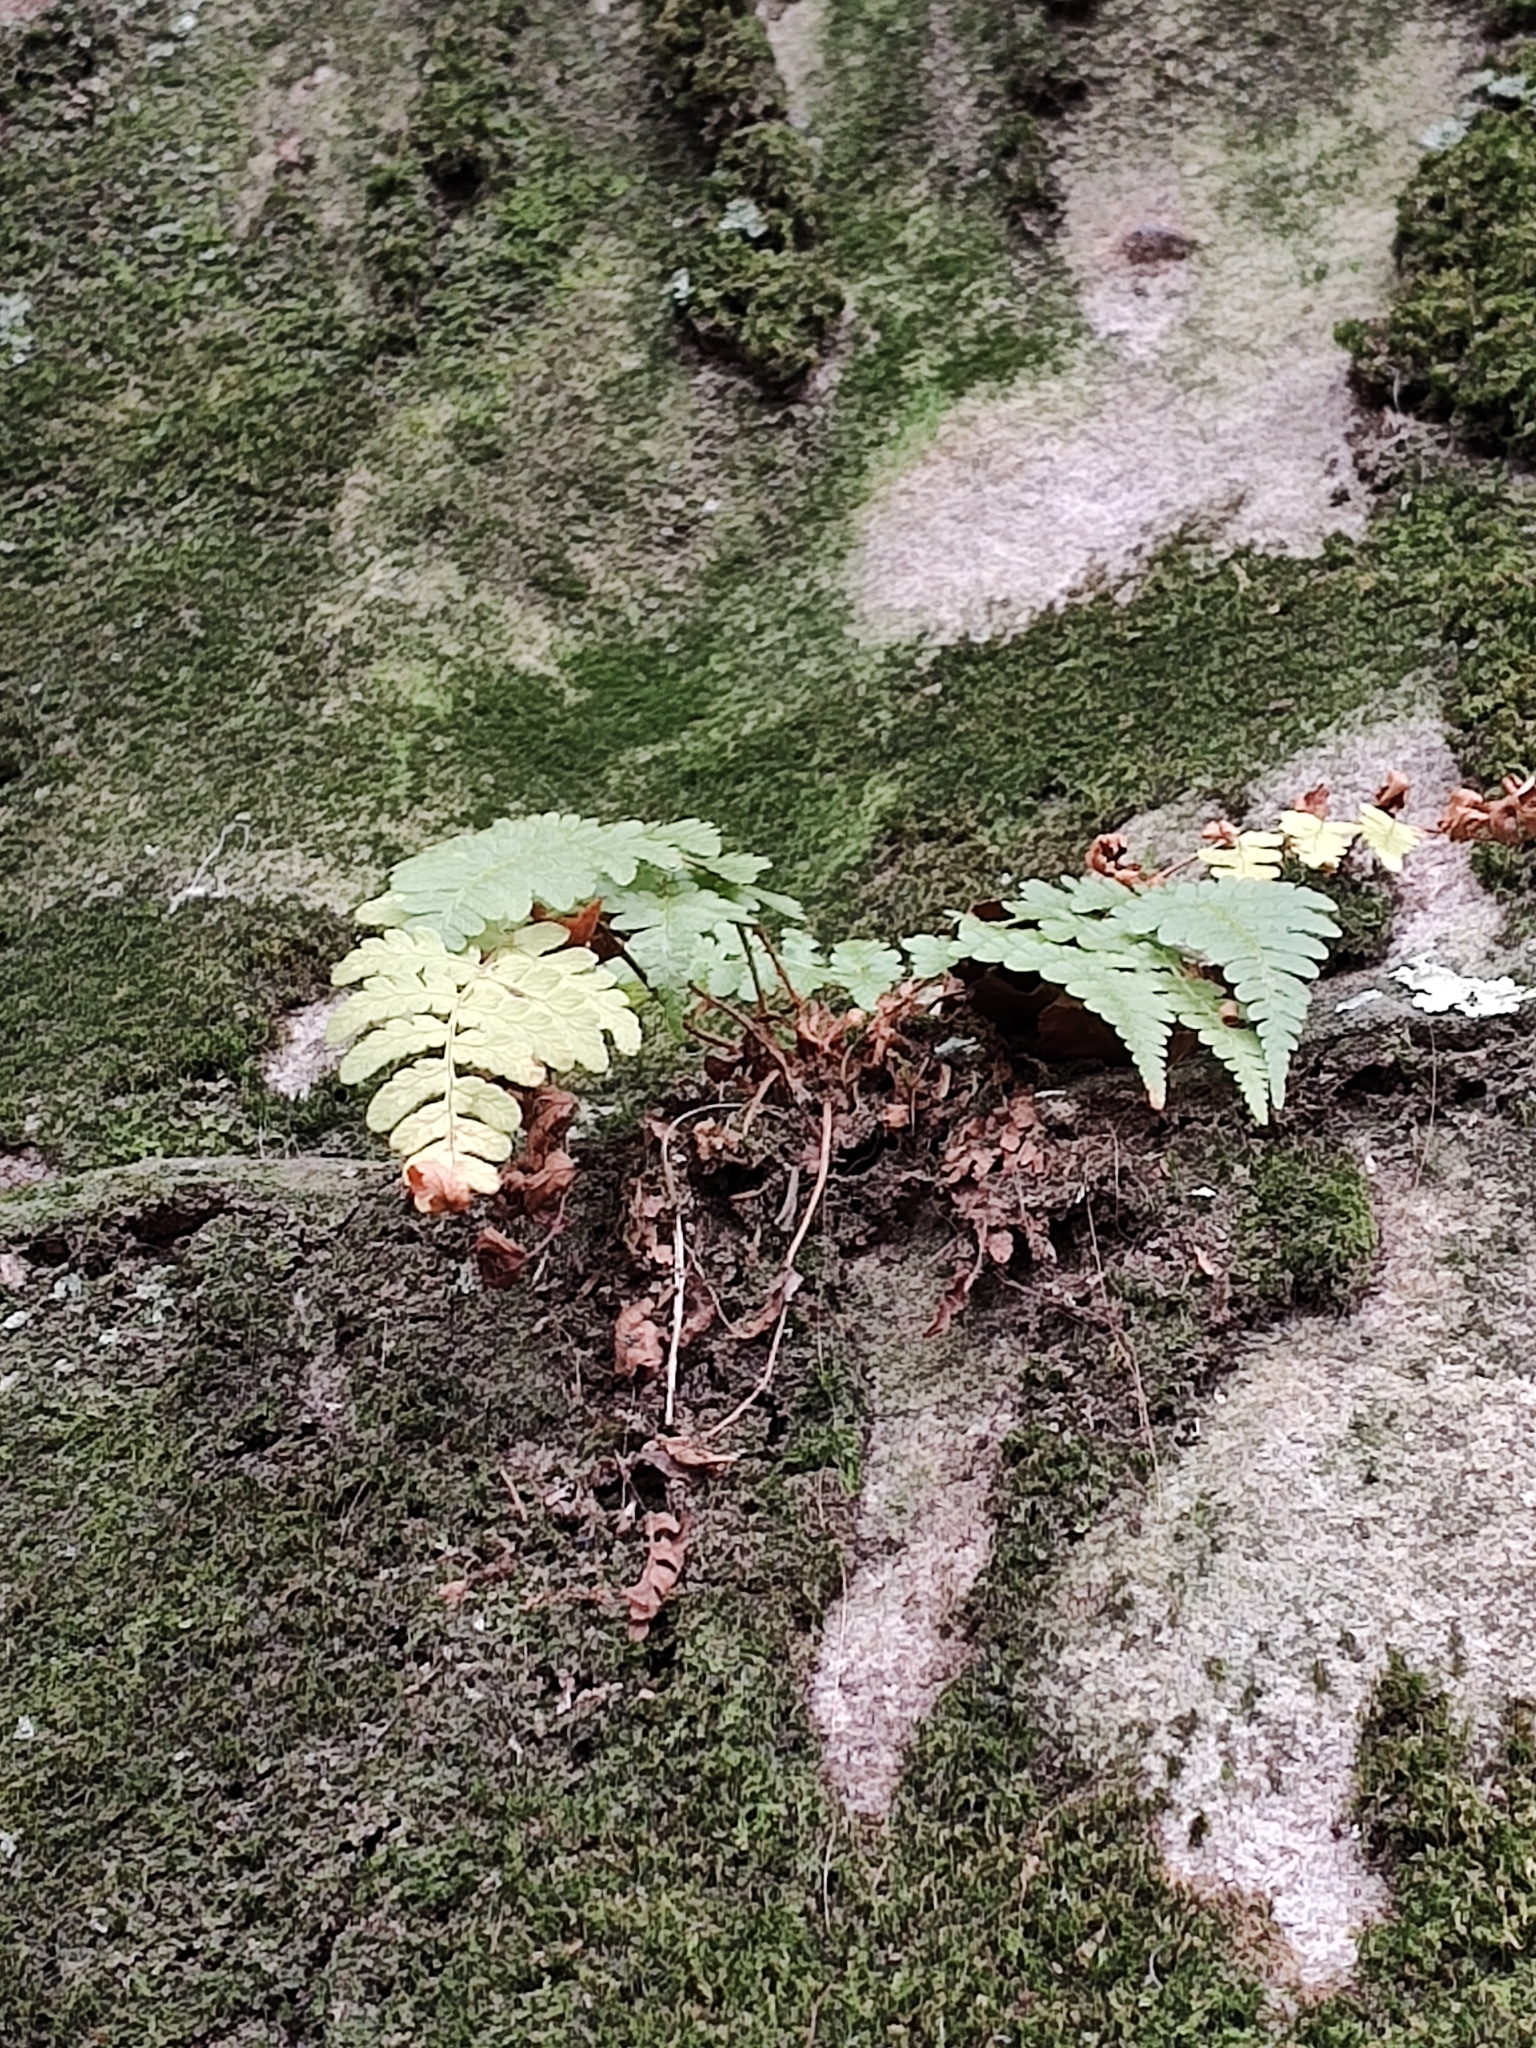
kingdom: Plantae
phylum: Tracheophyta
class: Polypodiopsida
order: Polypodiales
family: Dryopteridaceae
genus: Dryopteris
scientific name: Dryopteris marginalis
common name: Marginal wood fern
